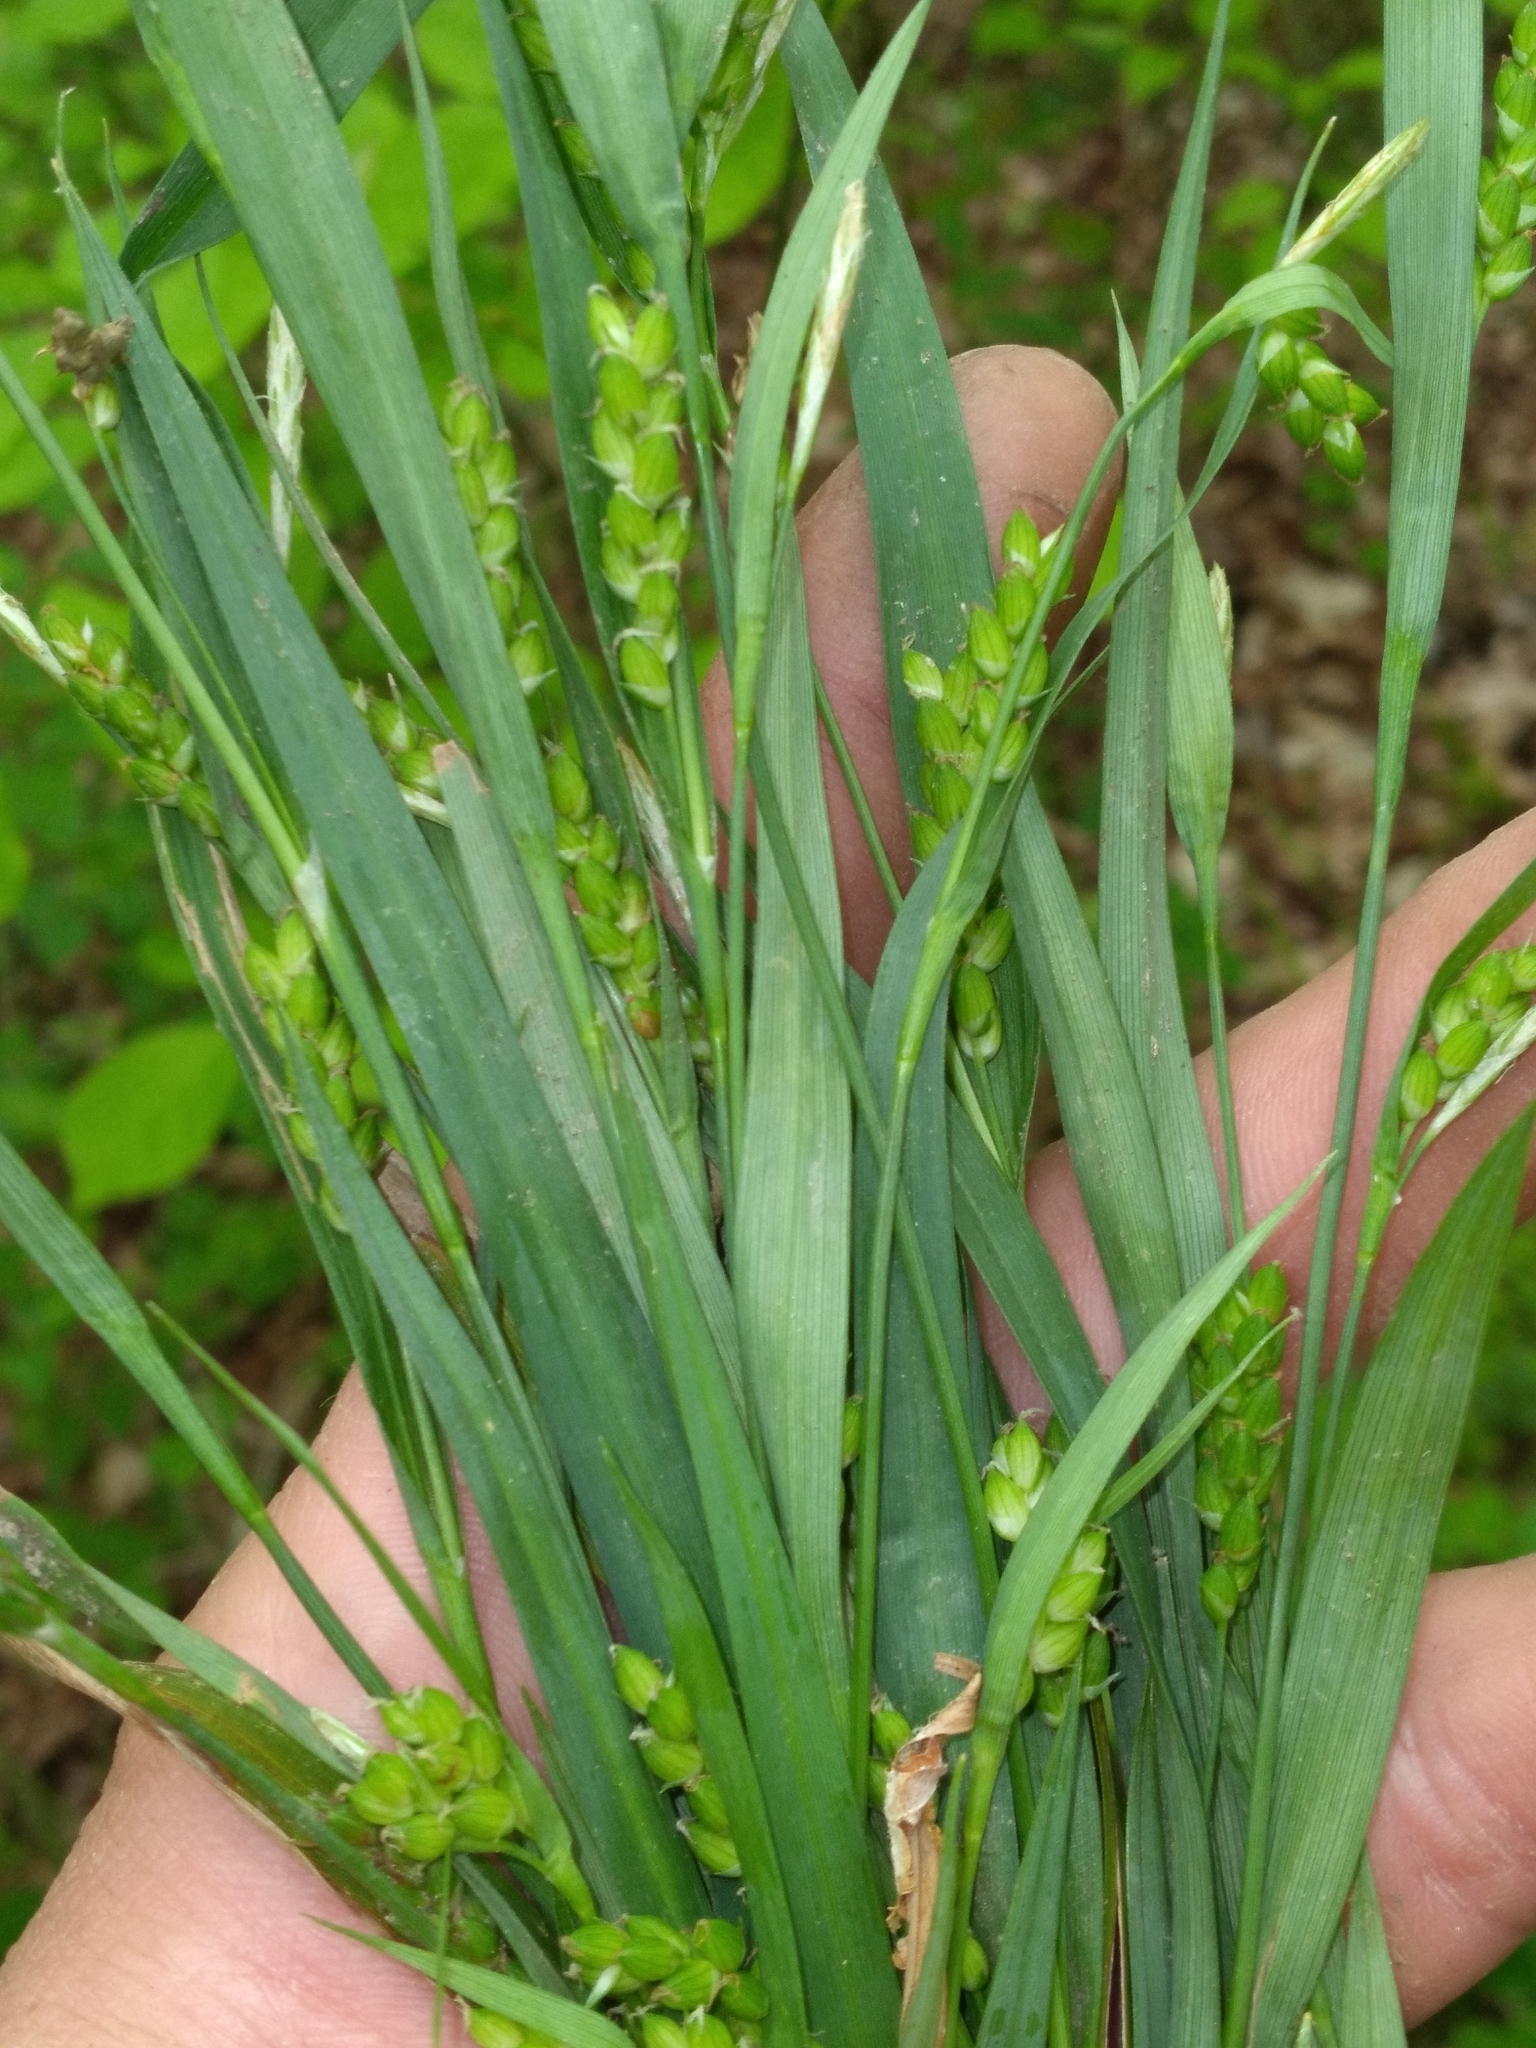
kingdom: Plantae
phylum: Tracheophyta
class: Liliopsida
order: Poales
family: Cyperaceae
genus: Carex
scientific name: Carex pigra
